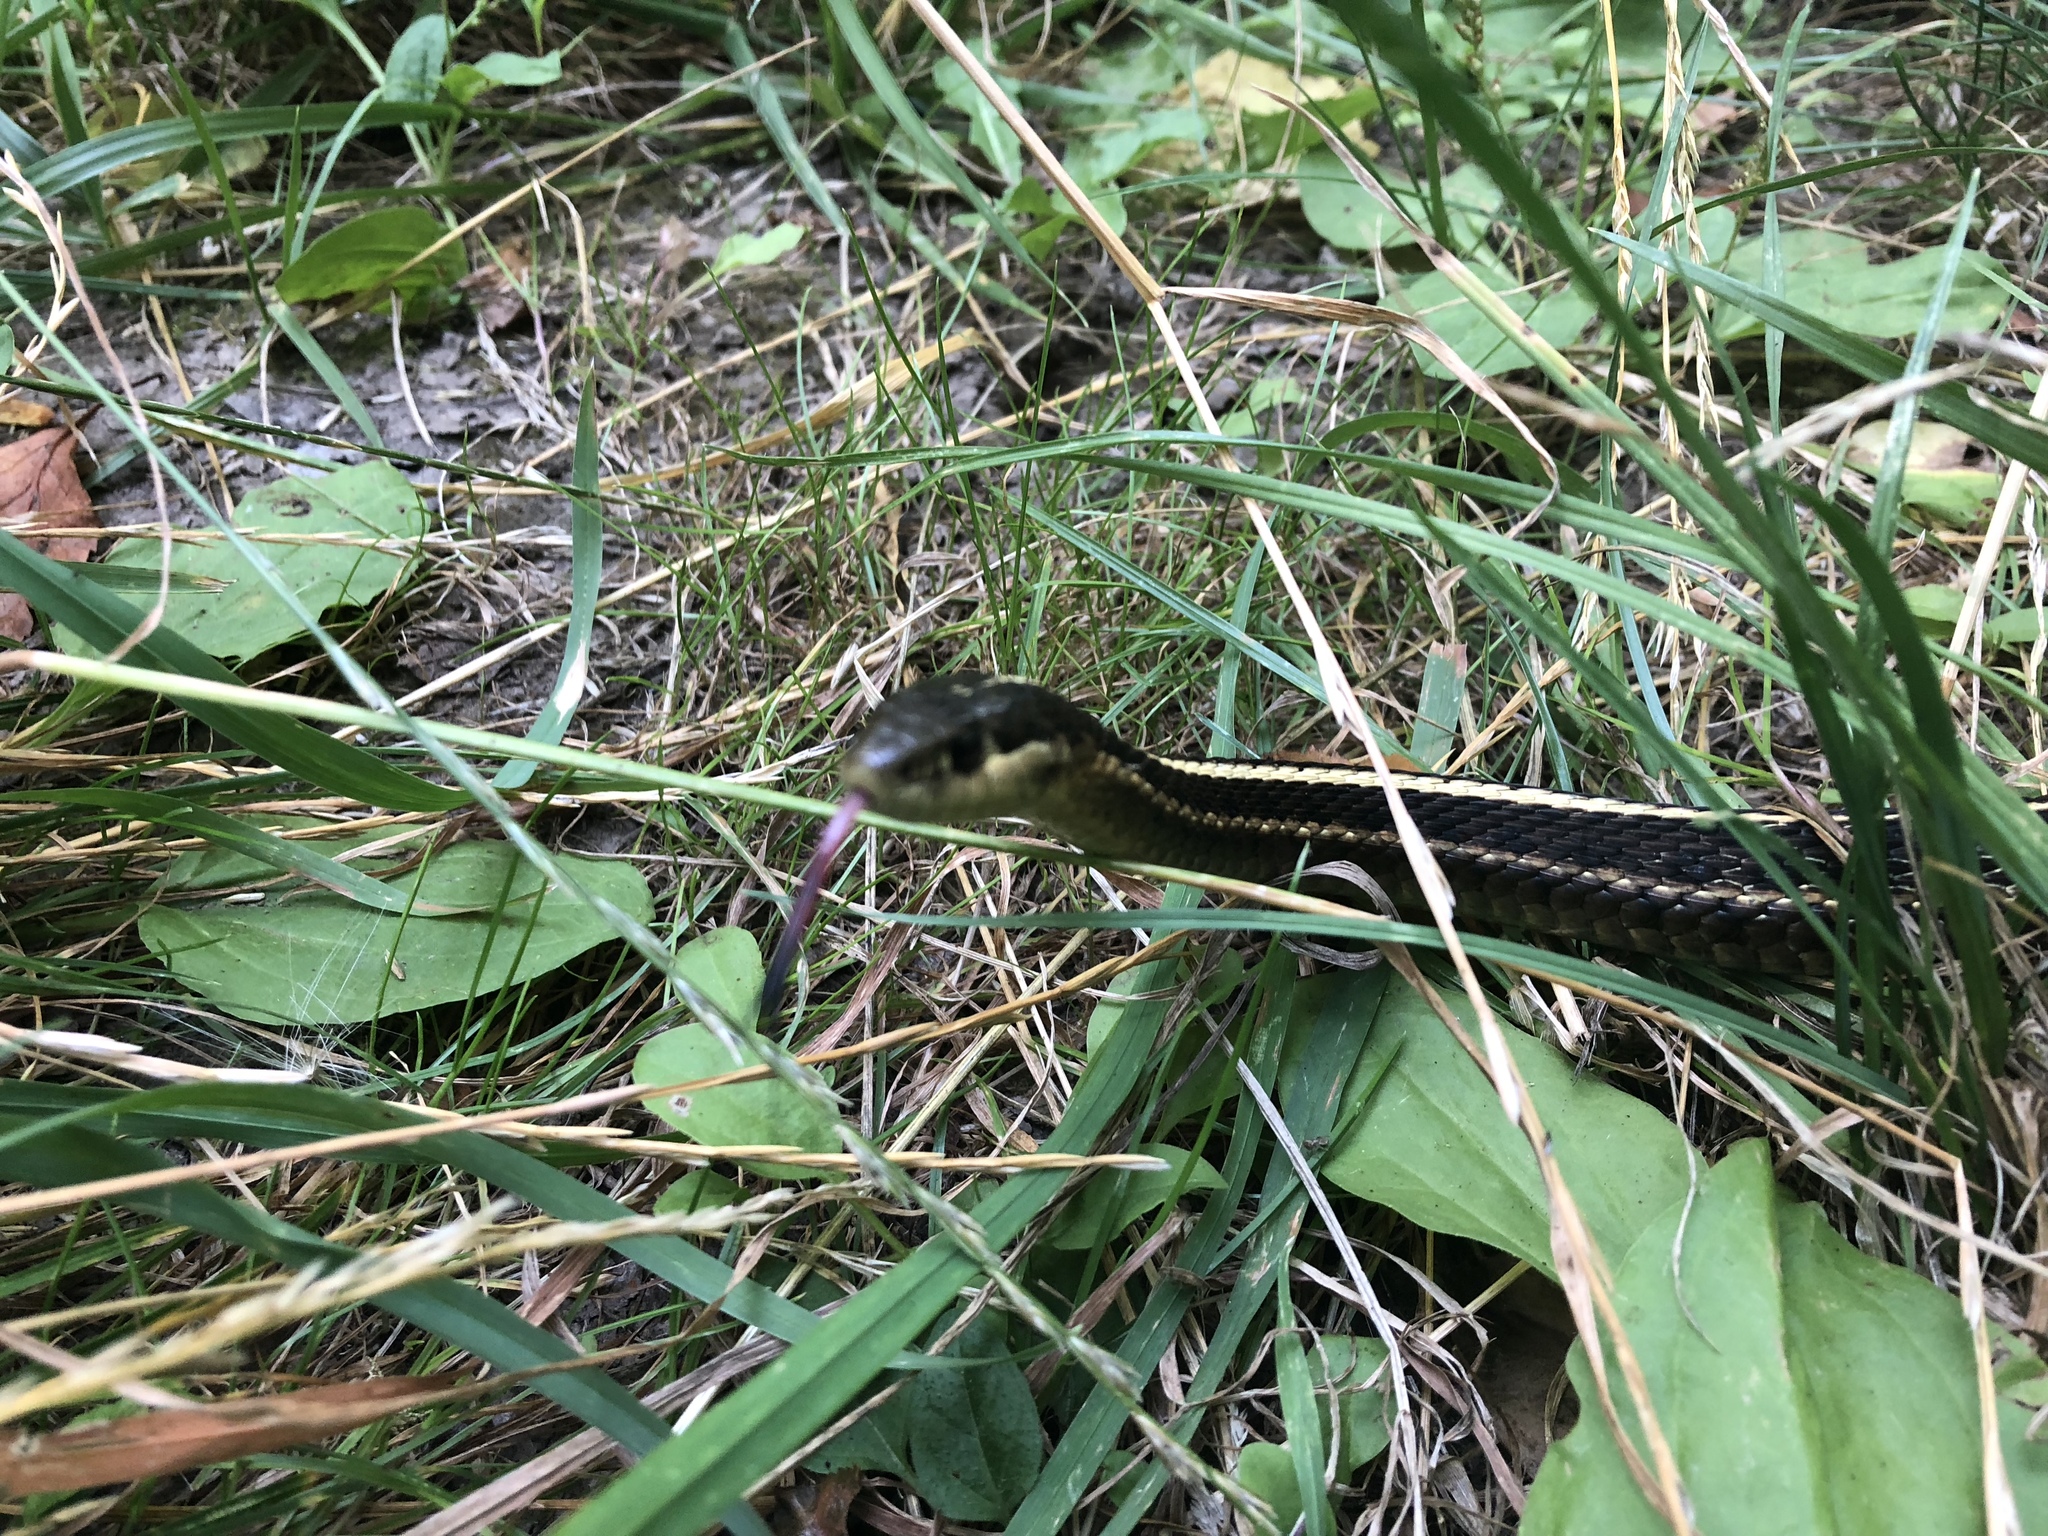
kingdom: Animalia
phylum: Chordata
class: Squamata
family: Colubridae
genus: Thamnophis
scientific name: Thamnophis ordinoides
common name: Northwestern garter snake
